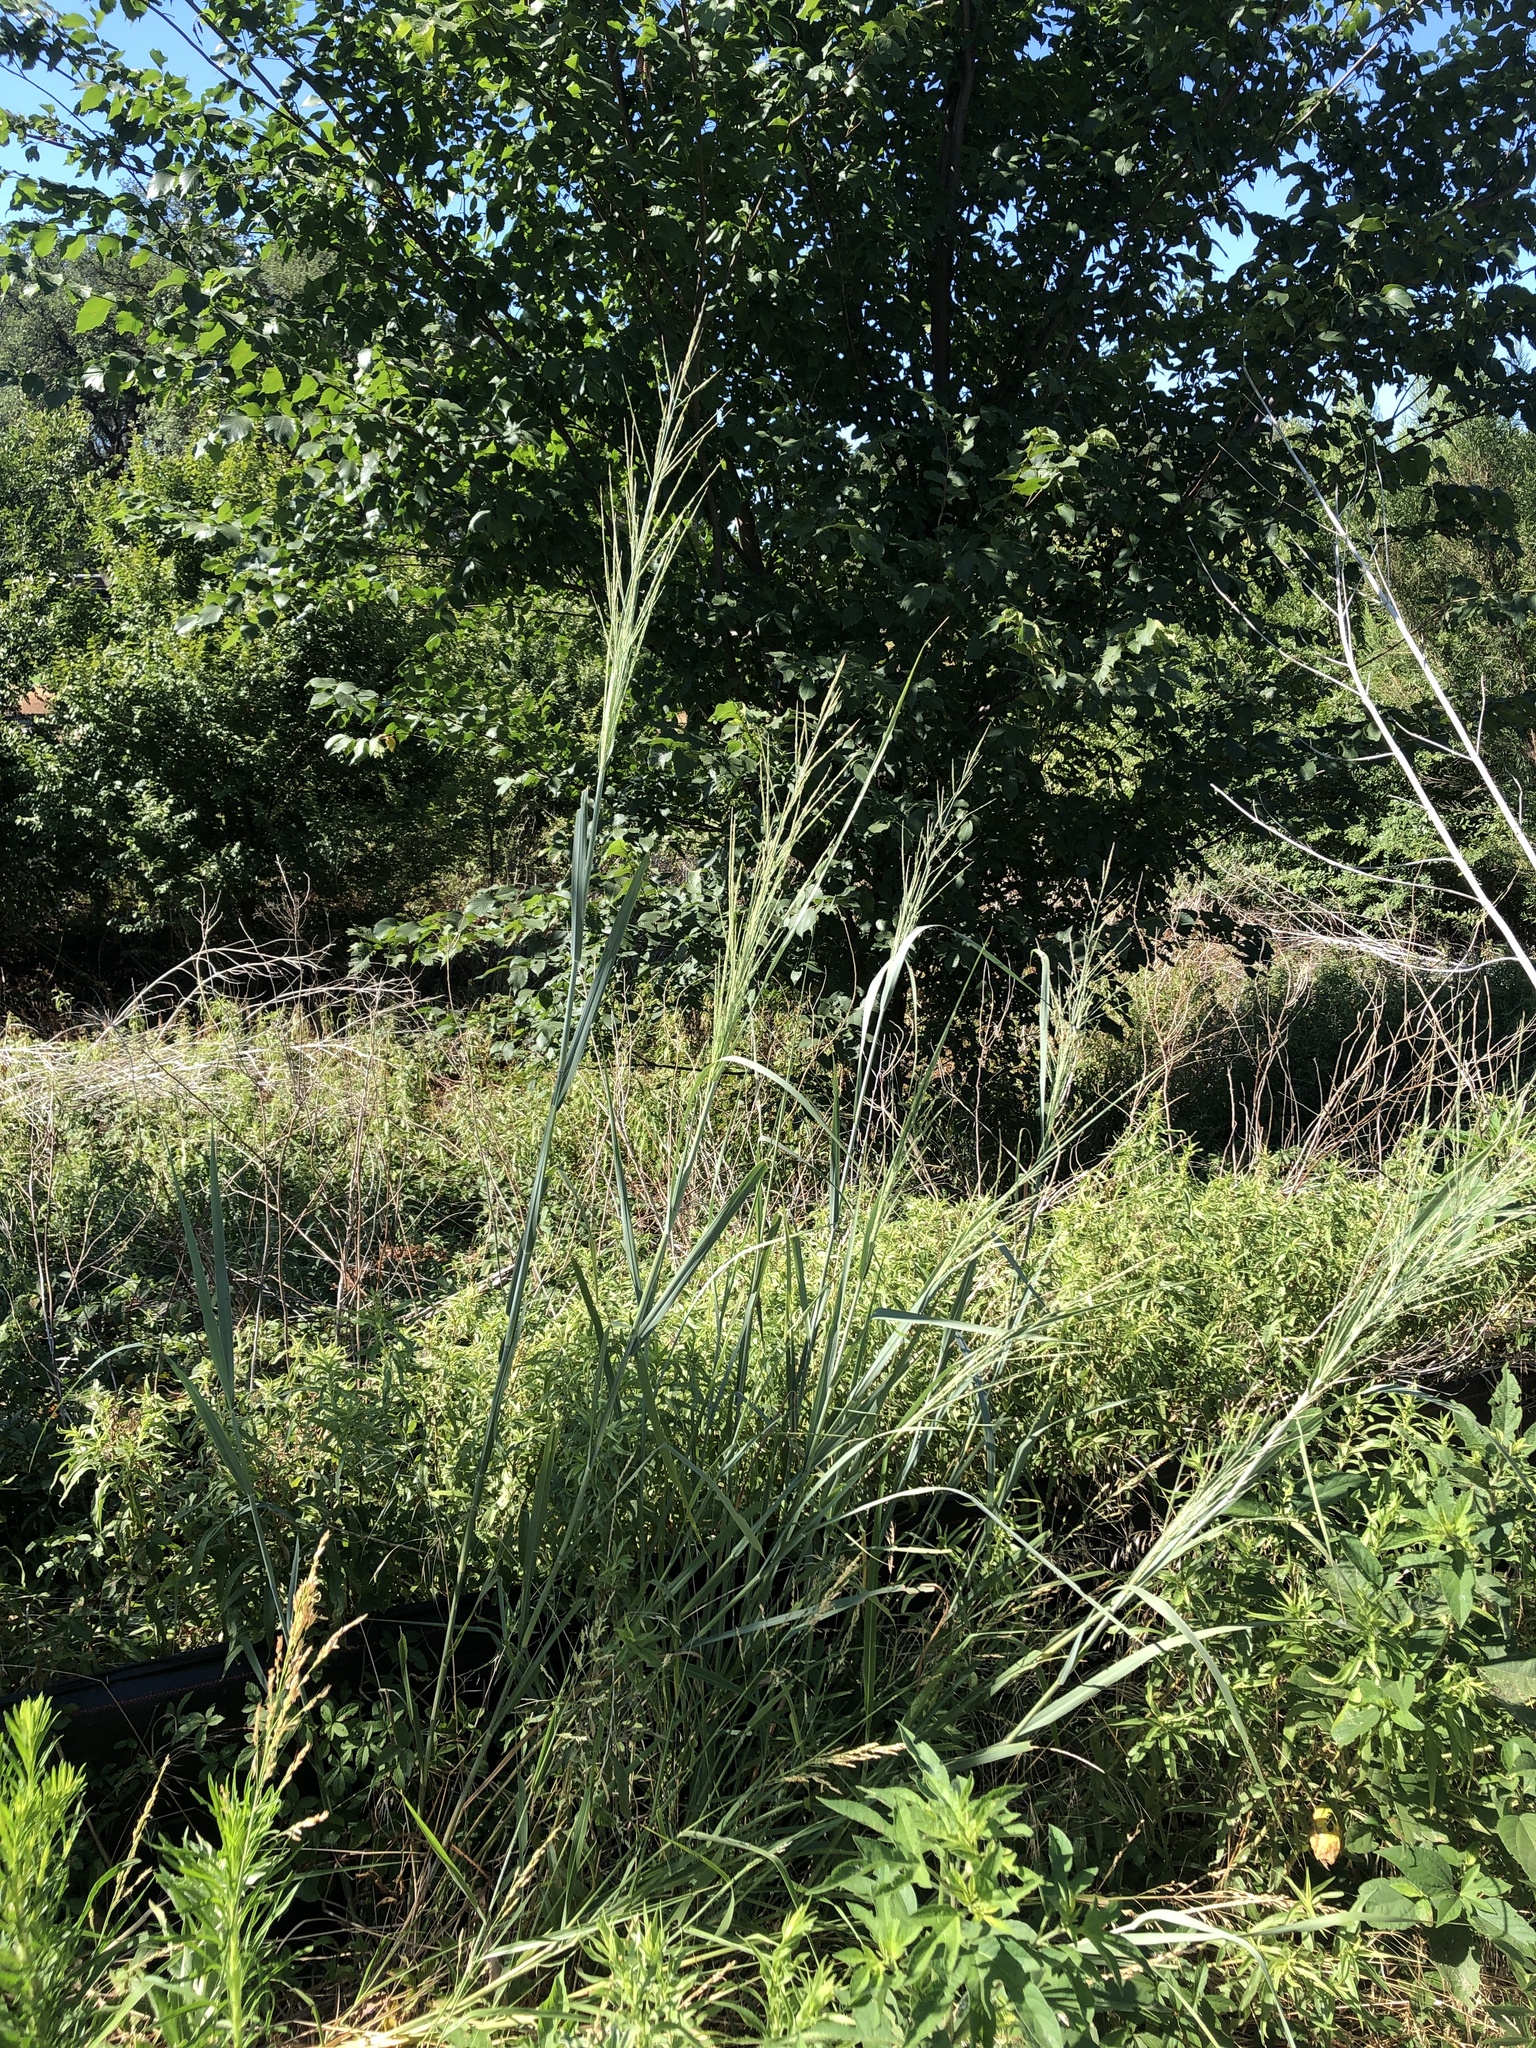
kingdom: Plantae
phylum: Tracheophyta
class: Liliopsida
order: Poales
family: Poaceae
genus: Panicum
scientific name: Panicum virgatum
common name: Switchgrass
